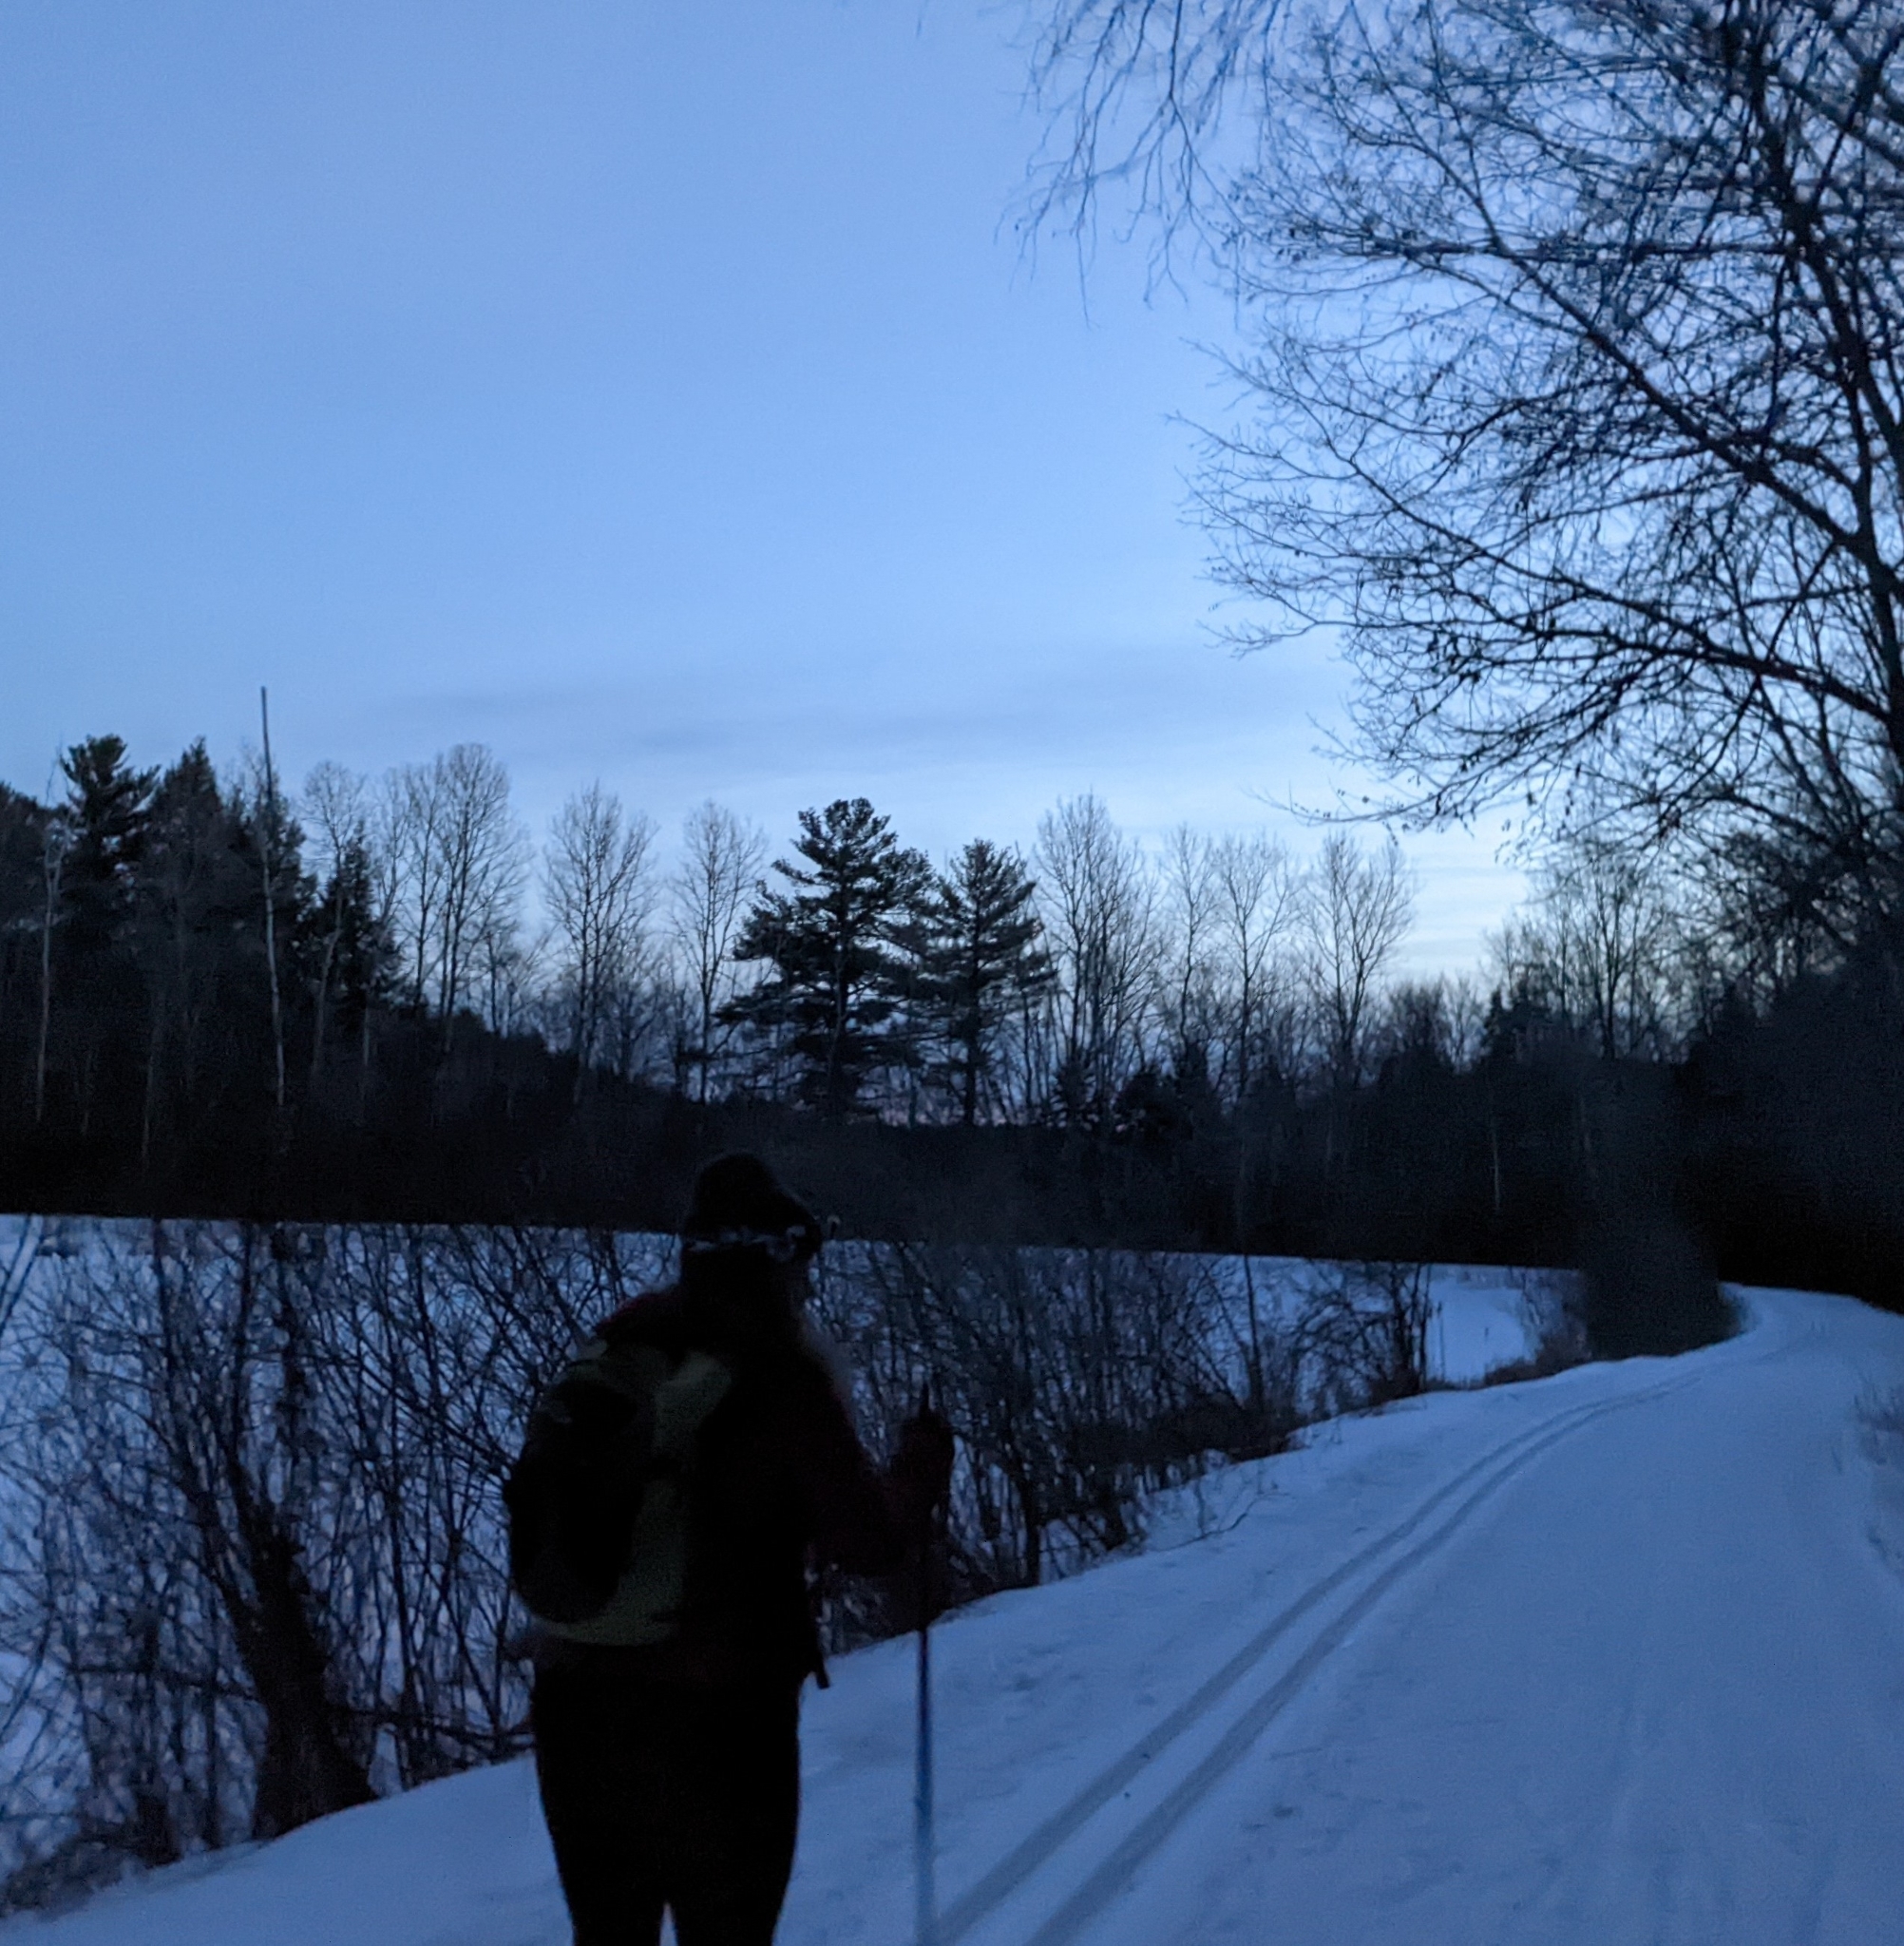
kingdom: Plantae
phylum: Tracheophyta
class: Pinopsida
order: Pinales
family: Pinaceae
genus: Pinus
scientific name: Pinus strobus
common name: Weymouth pine
